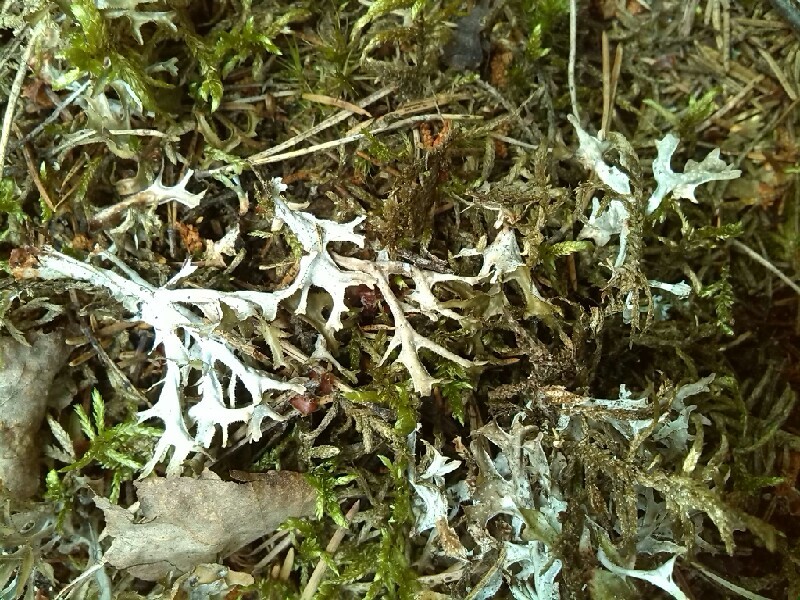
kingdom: Fungi
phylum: Ascomycota
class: Lecanoromycetes
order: Lecanorales
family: Parmeliaceae
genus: Cetraria
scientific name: Cetraria islandica
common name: Iceland lichen
